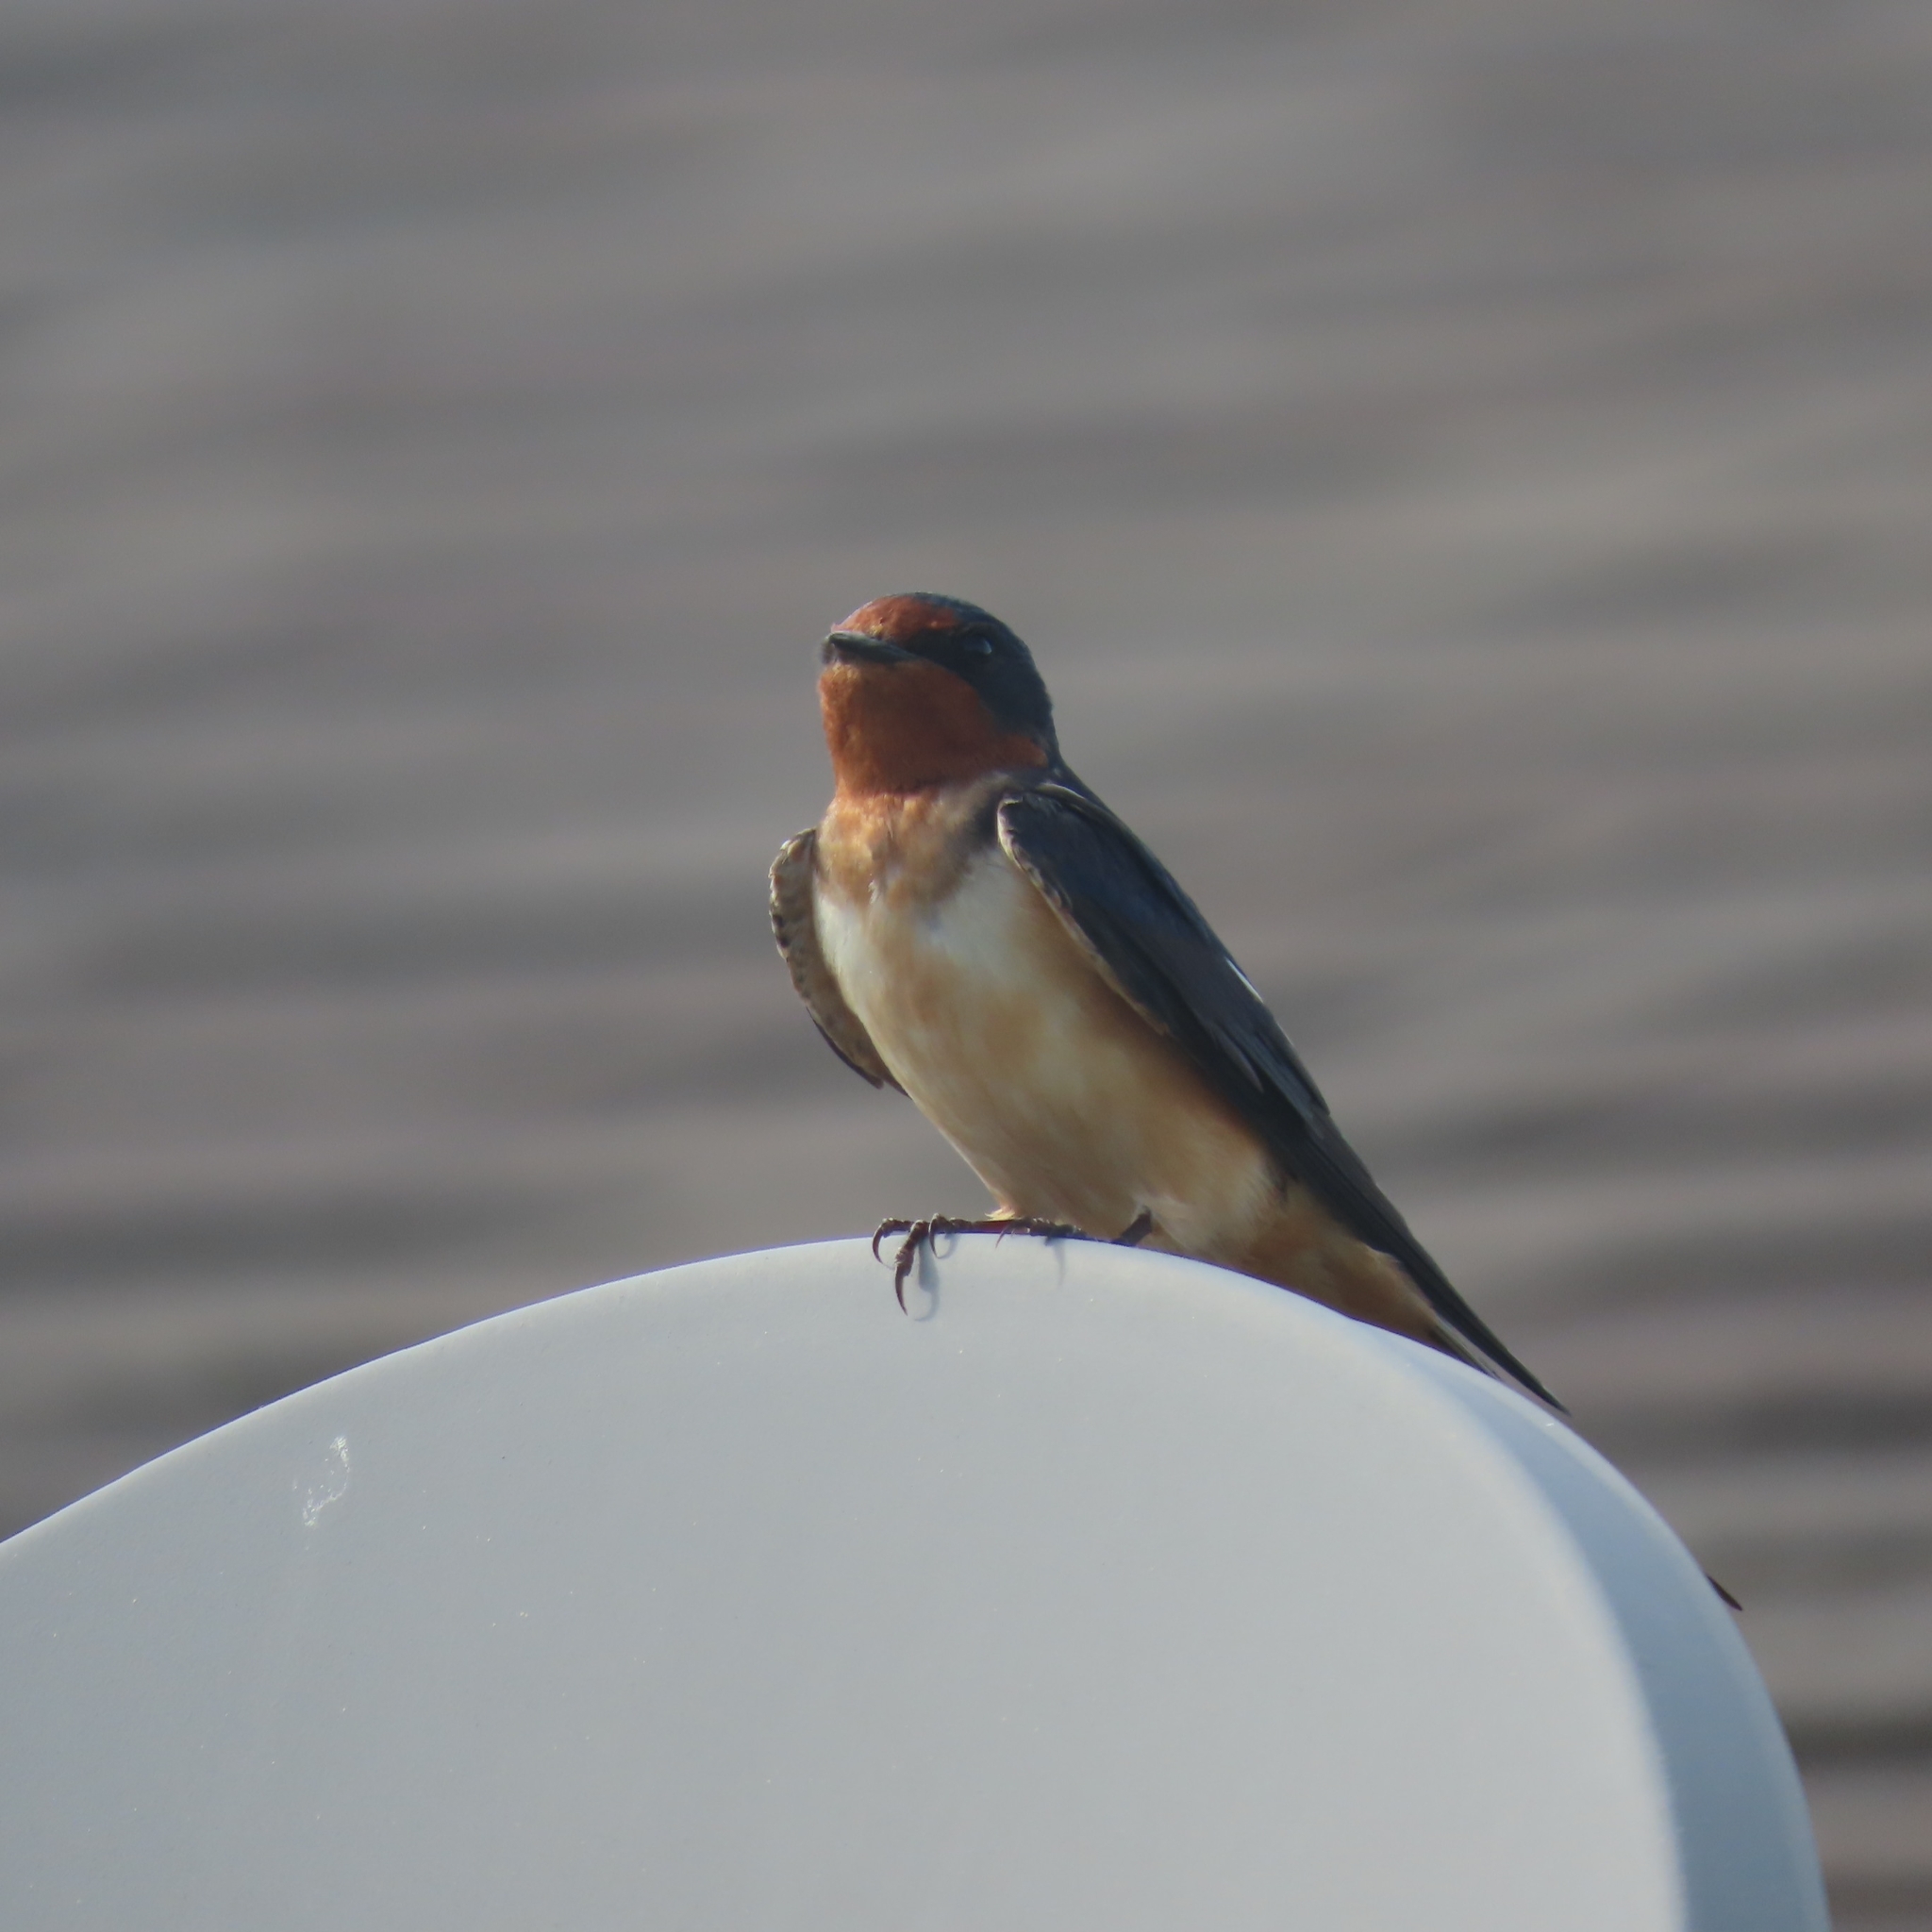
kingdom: Animalia
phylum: Chordata
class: Aves
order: Passeriformes
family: Hirundinidae
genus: Hirundo
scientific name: Hirundo rustica
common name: Barn swallow
